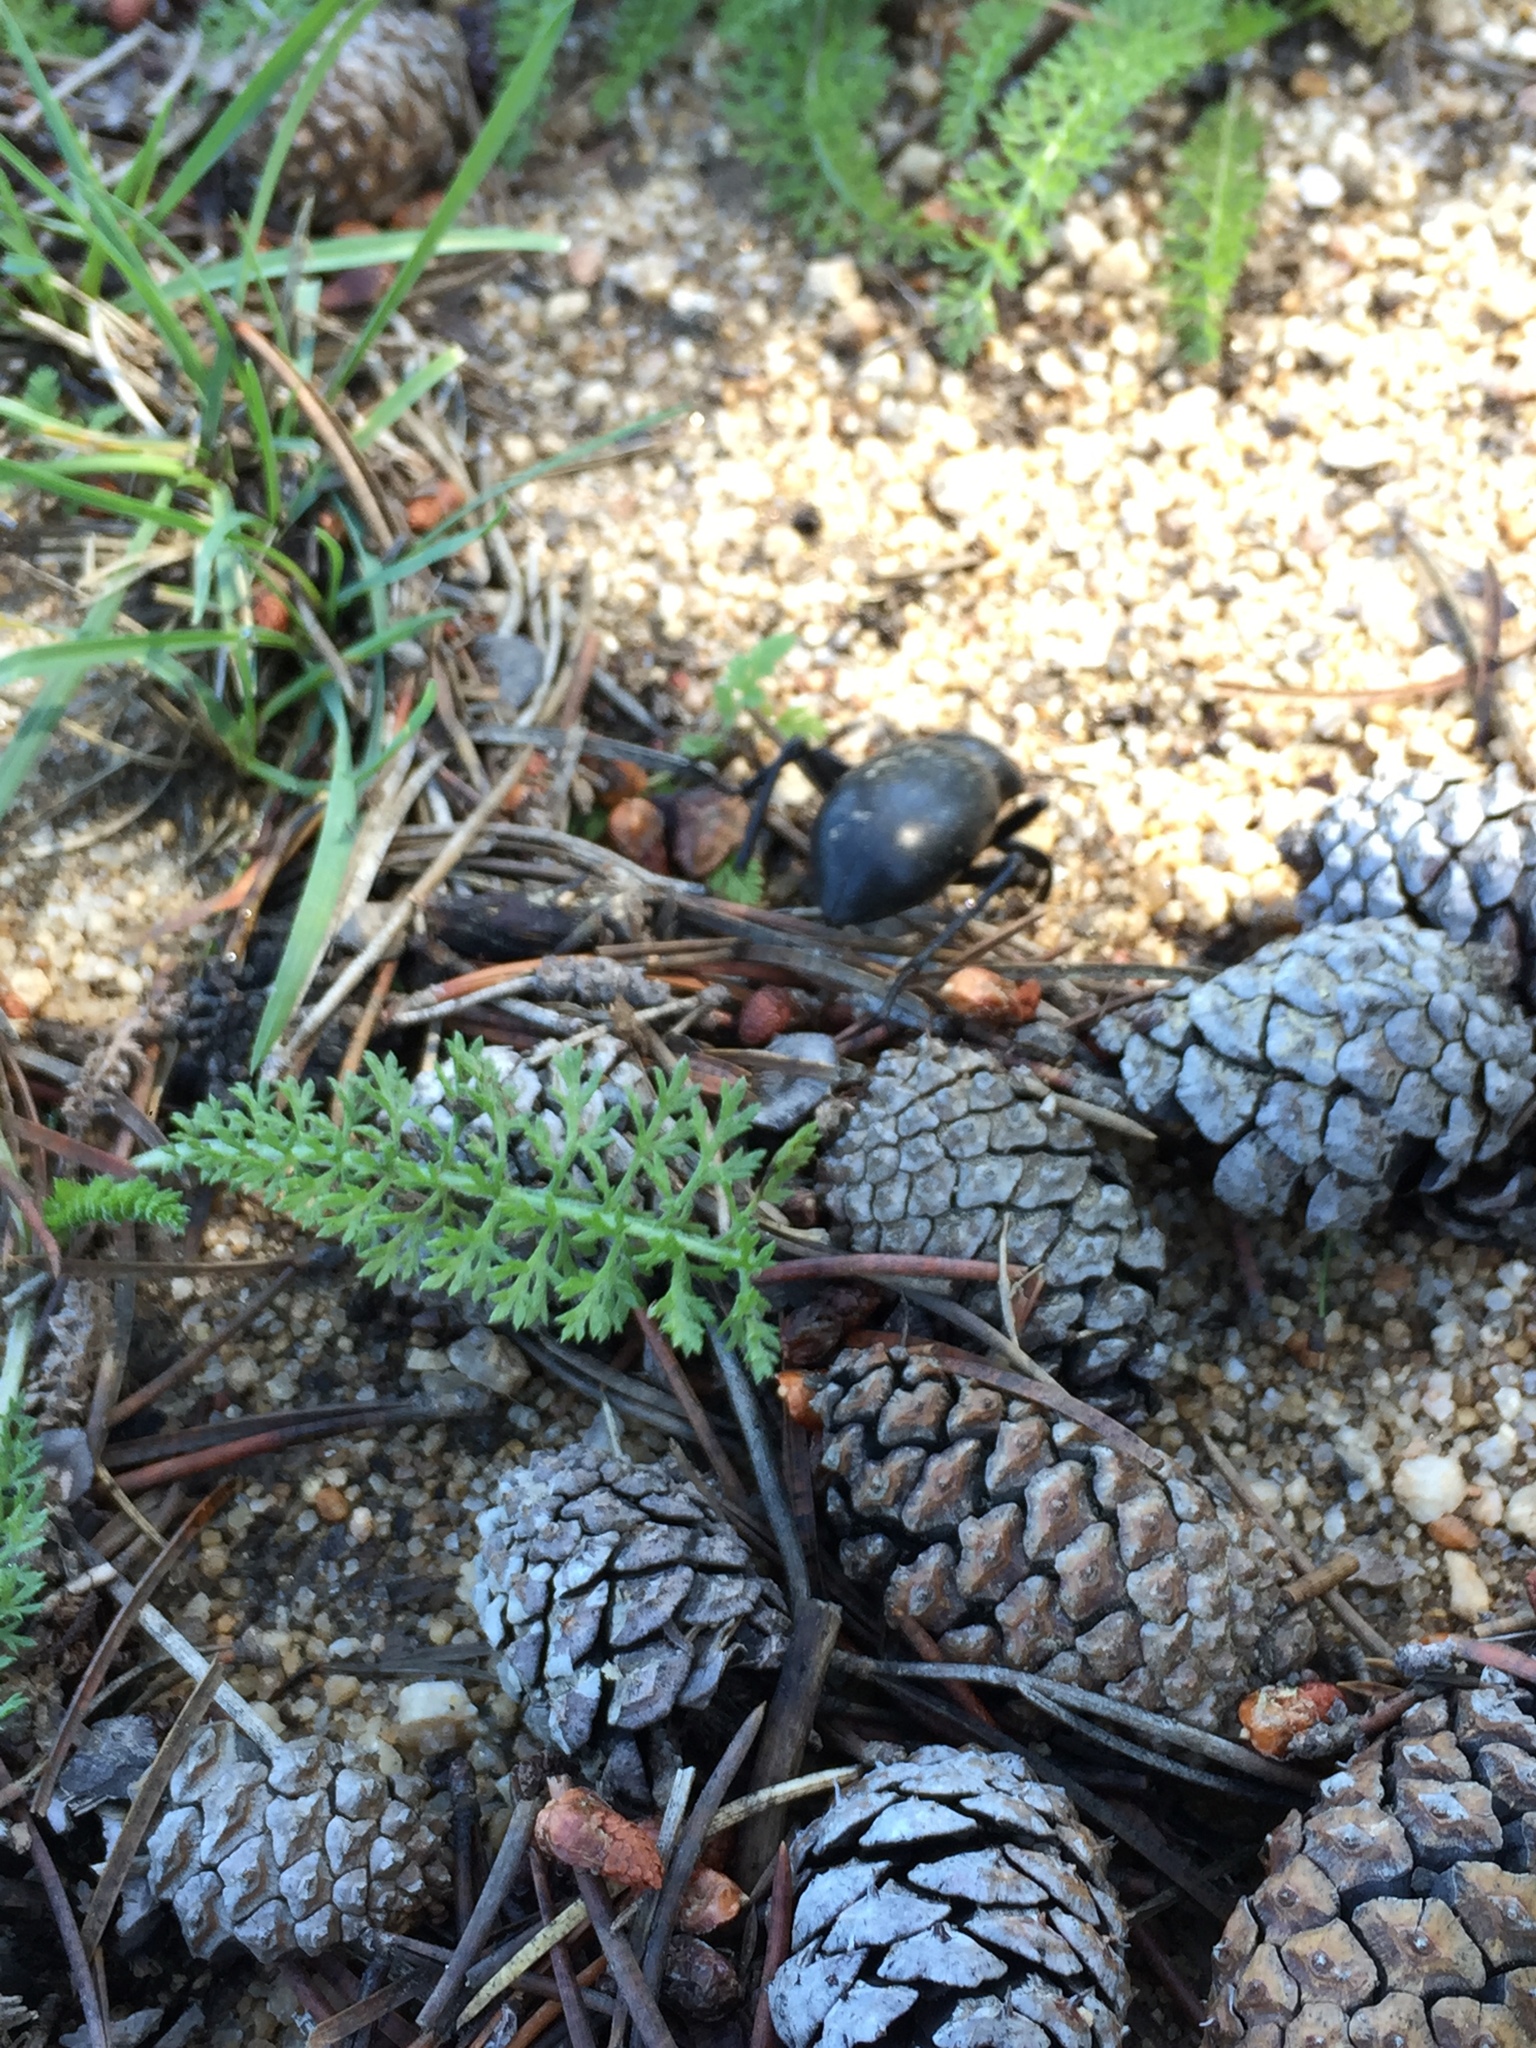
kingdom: Plantae
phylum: Tracheophyta
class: Magnoliopsida
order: Asterales
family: Asteraceae
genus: Achillea
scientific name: Achillea millefolium
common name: Yarrow
